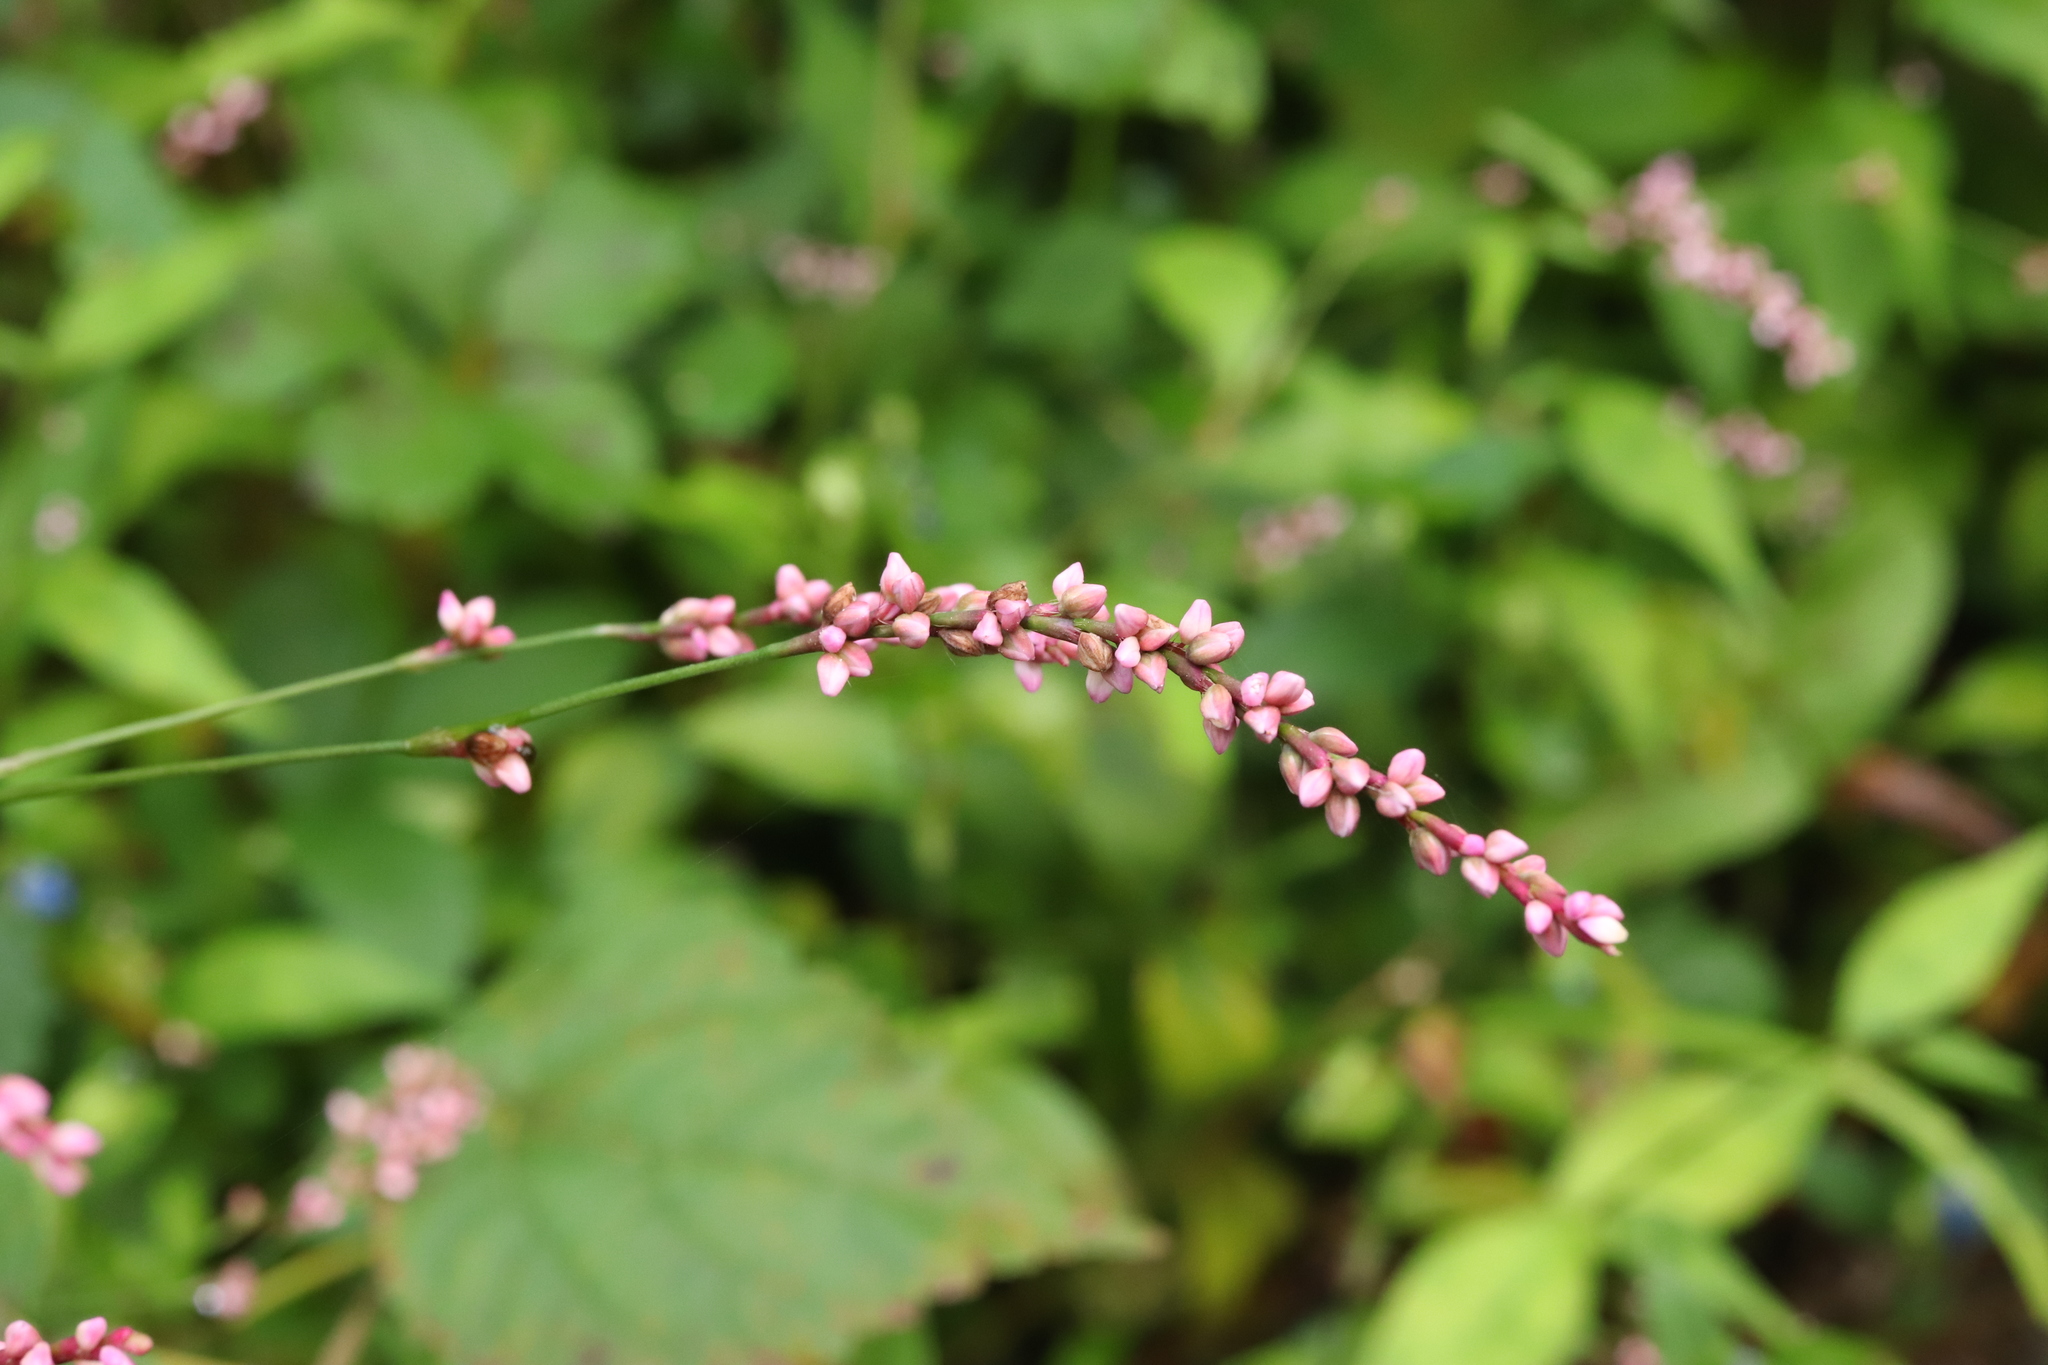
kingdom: Plantae
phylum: Tracheophyta
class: Magnoliopsida
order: Caryophyllales
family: Polygonaceae
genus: Persicaria
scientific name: Persicaria longiseta
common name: Bristly lady's-thumb
